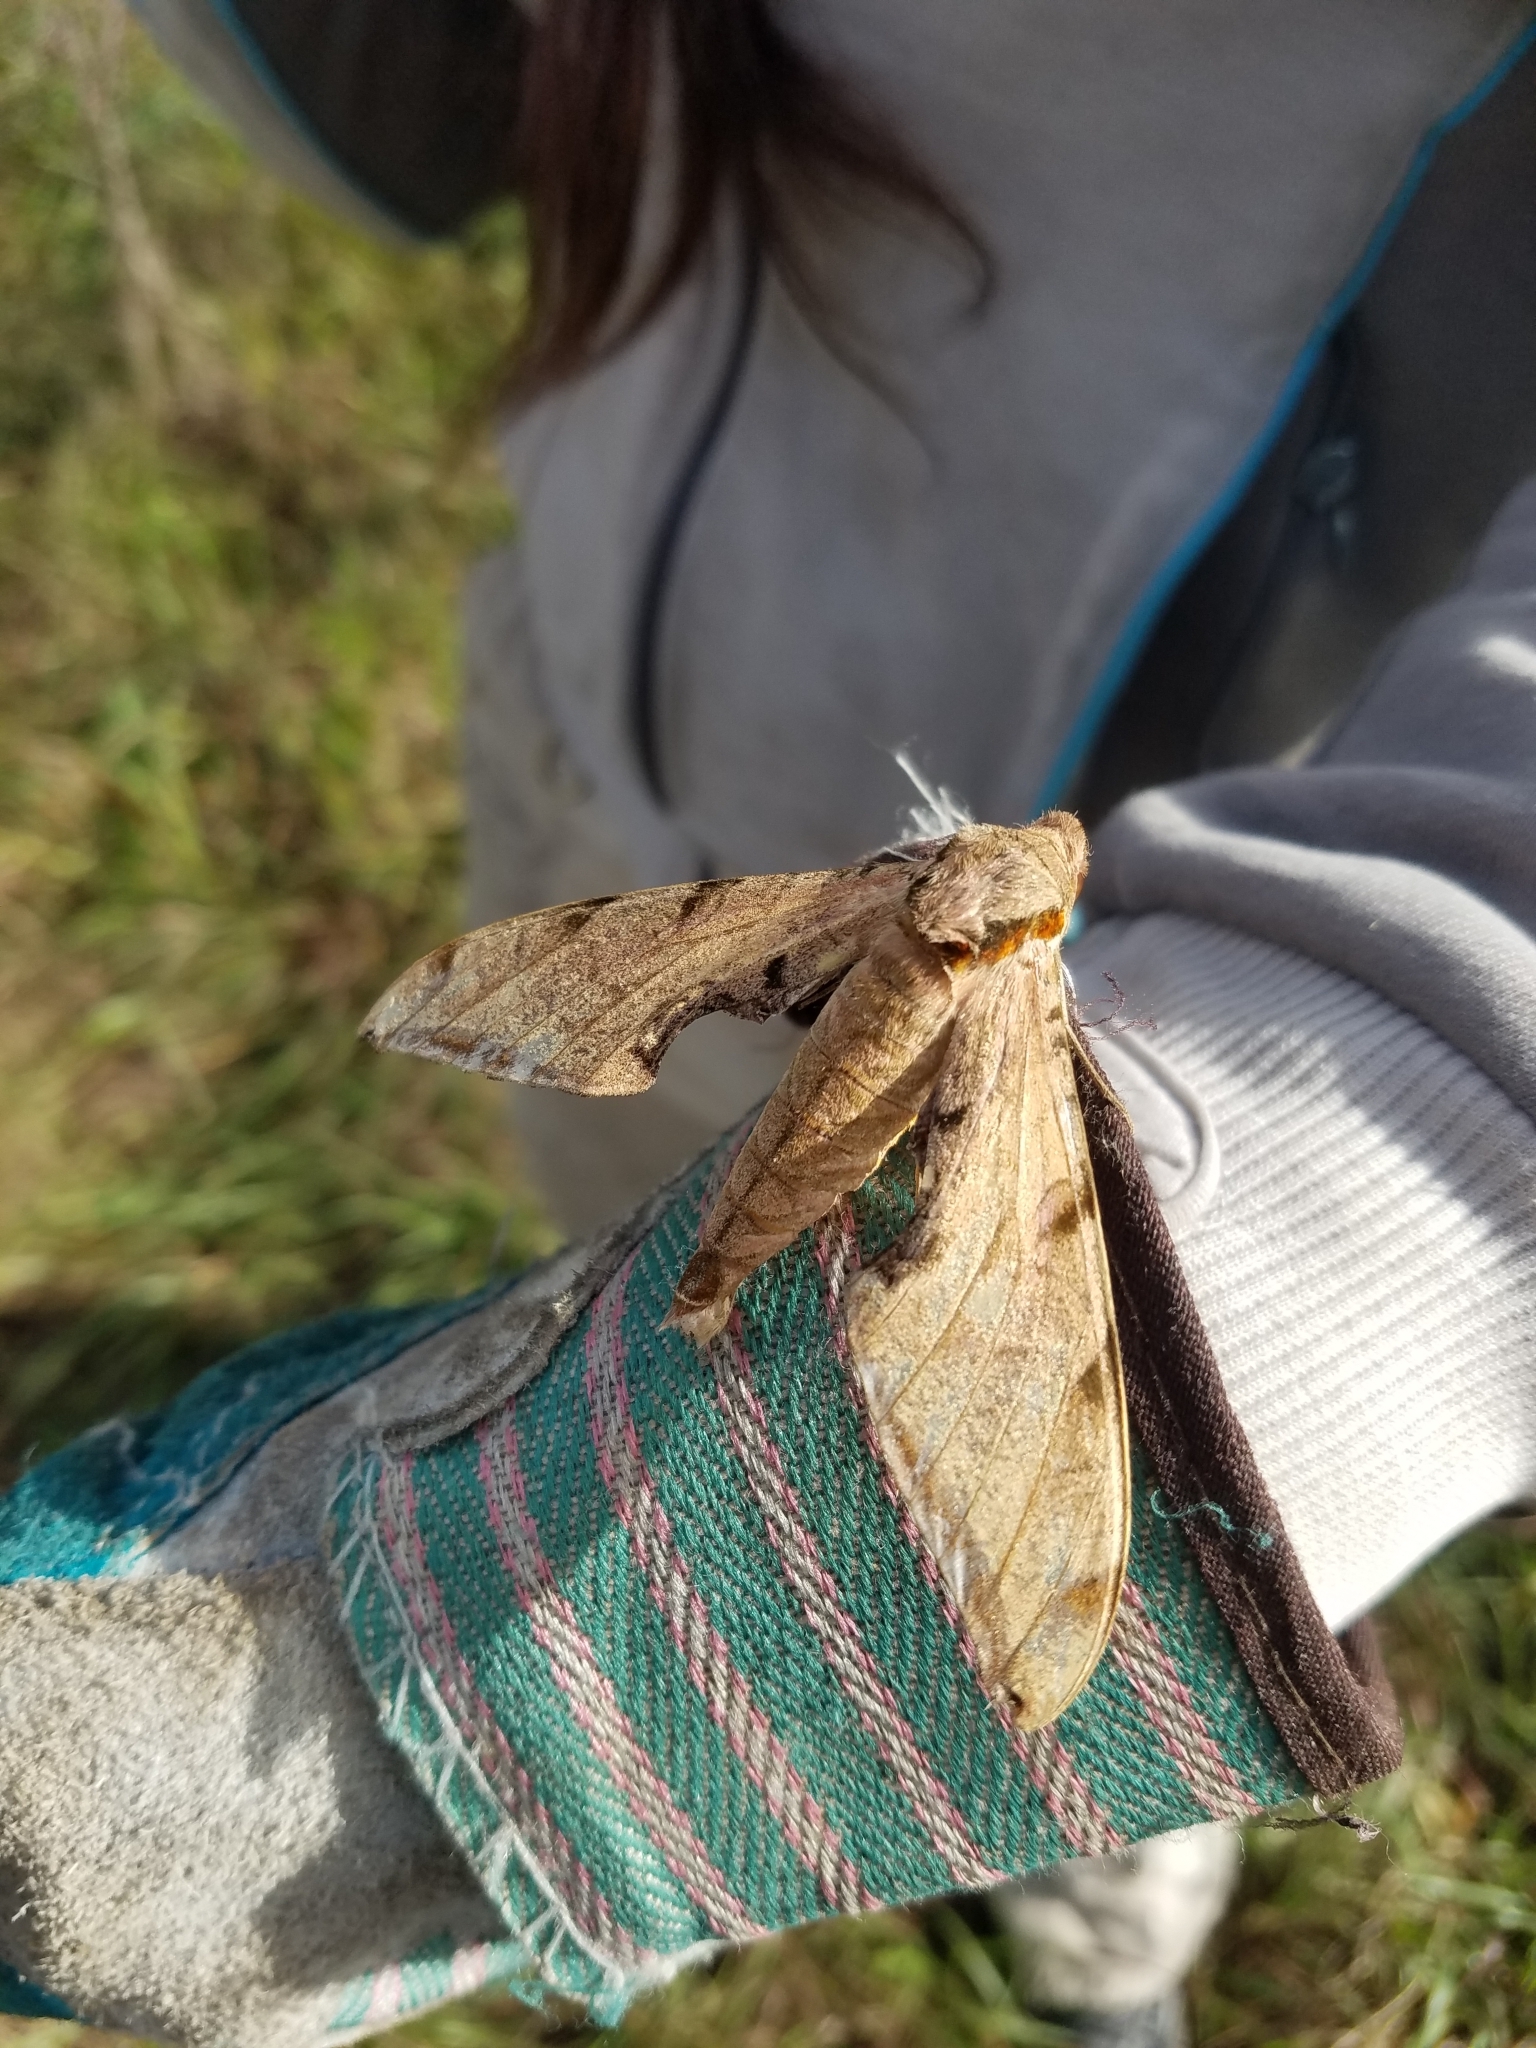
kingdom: Animalia
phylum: Arthropoda
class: Insecta
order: Lepidoptera
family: Sphingidae
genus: Protambulyx
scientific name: Protambulyx strigilis
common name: Streaked sphinx
